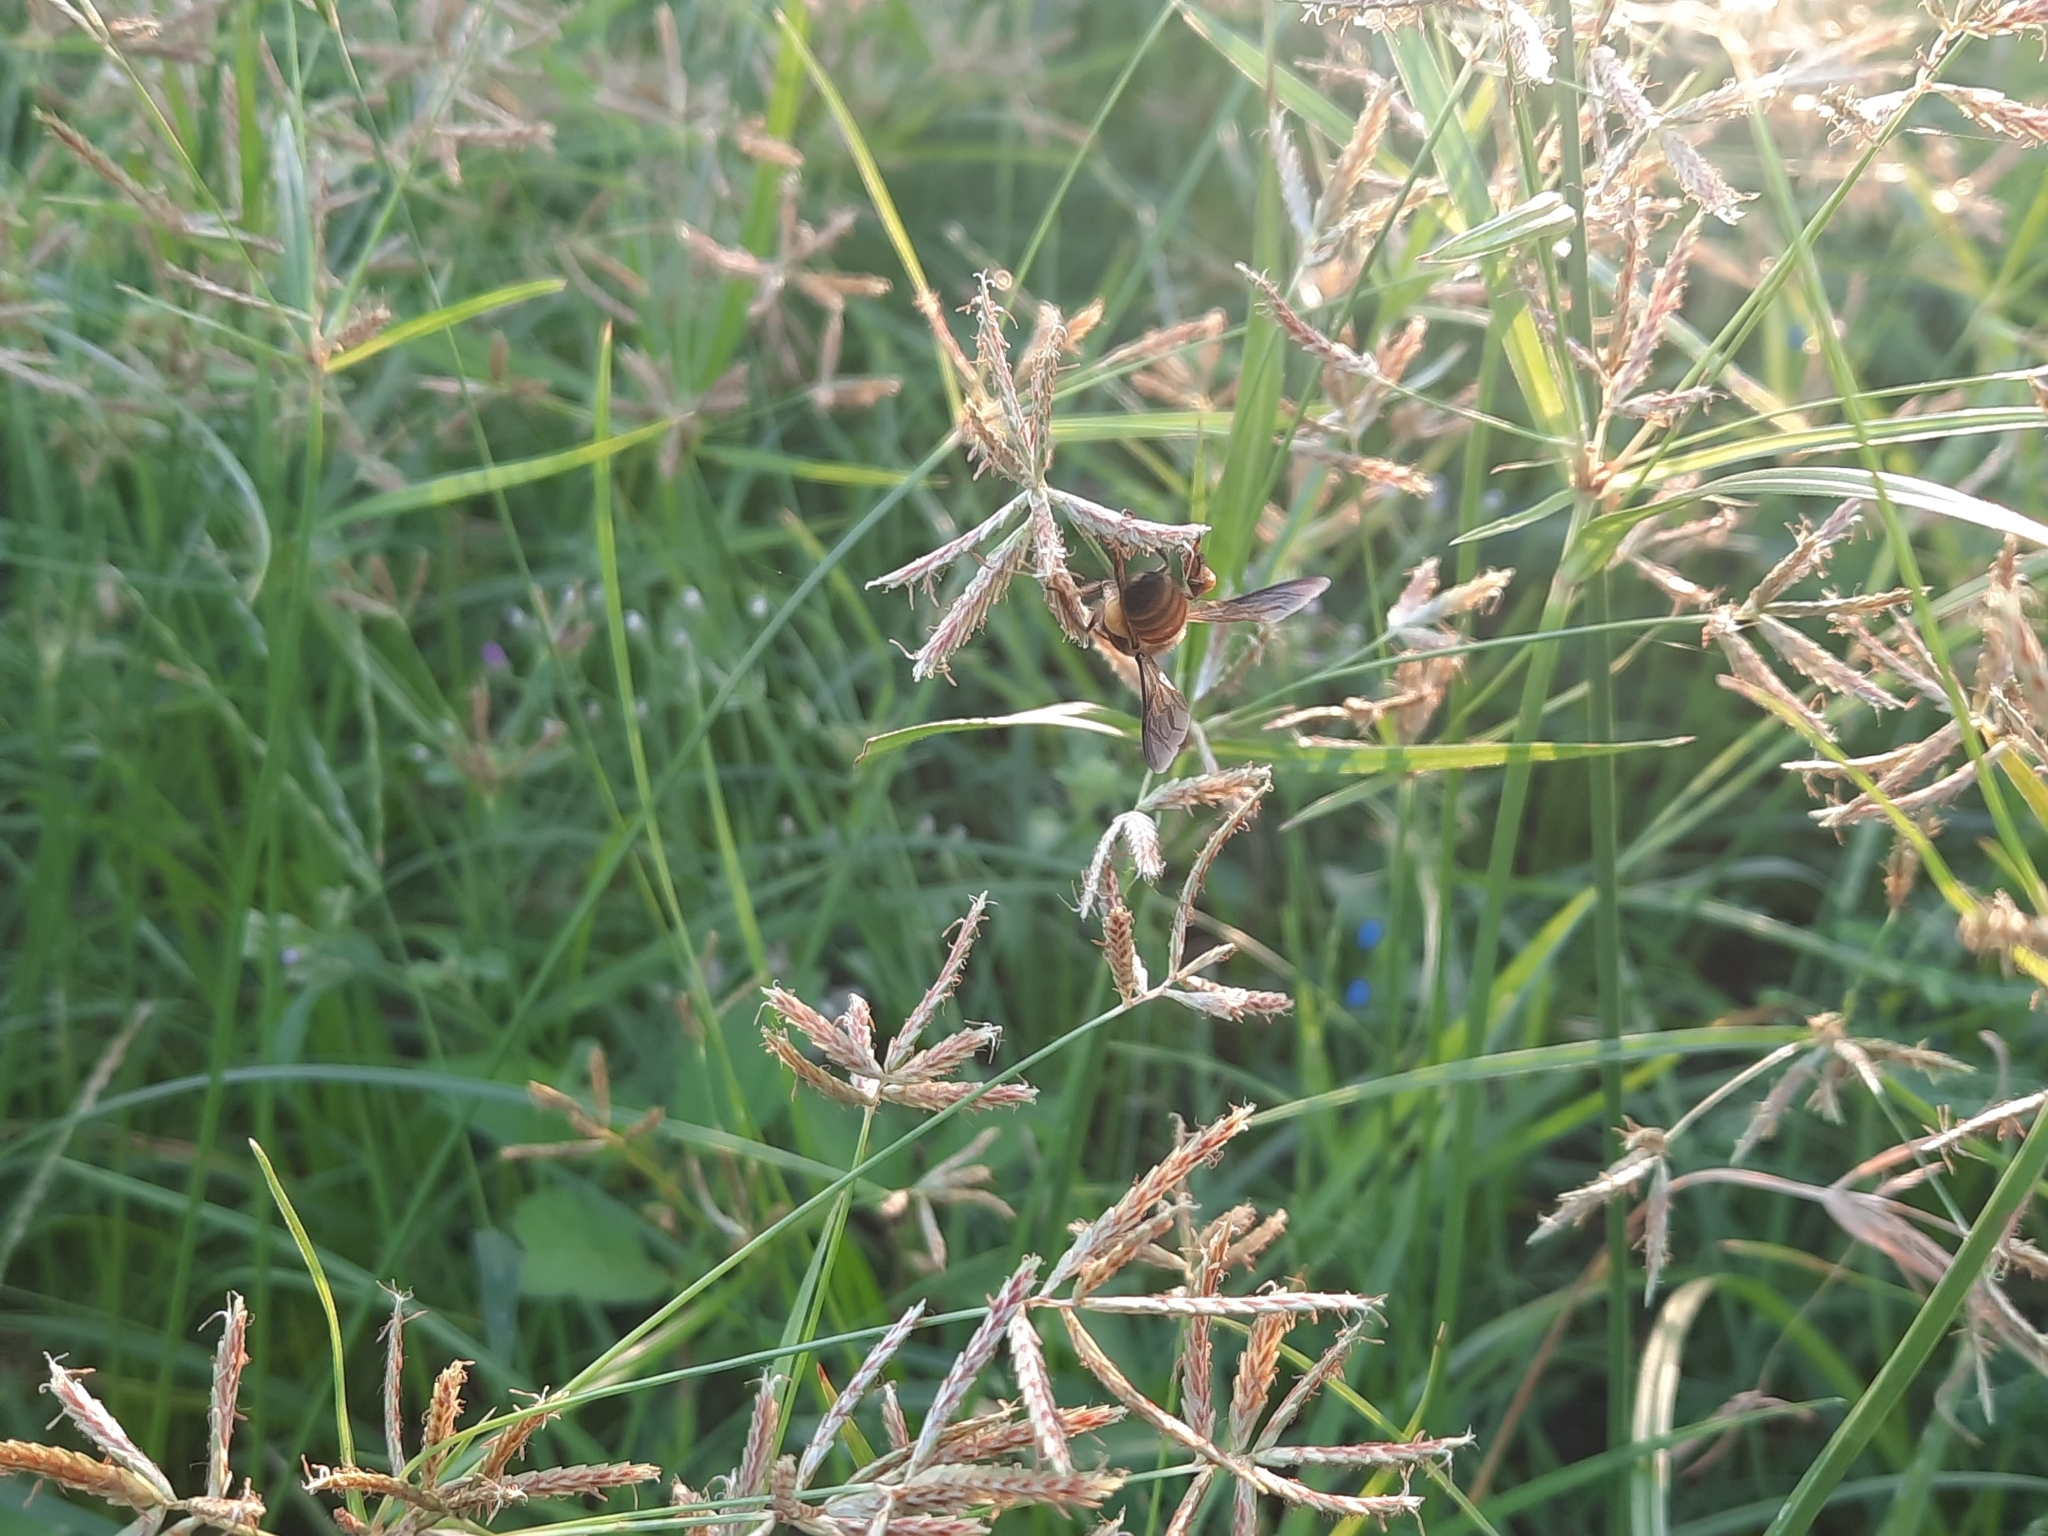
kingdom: Animalia
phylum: Arthropoda
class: Insecta
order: Hymenoptera
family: Apidae
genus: Apis
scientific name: Apis dorsata
